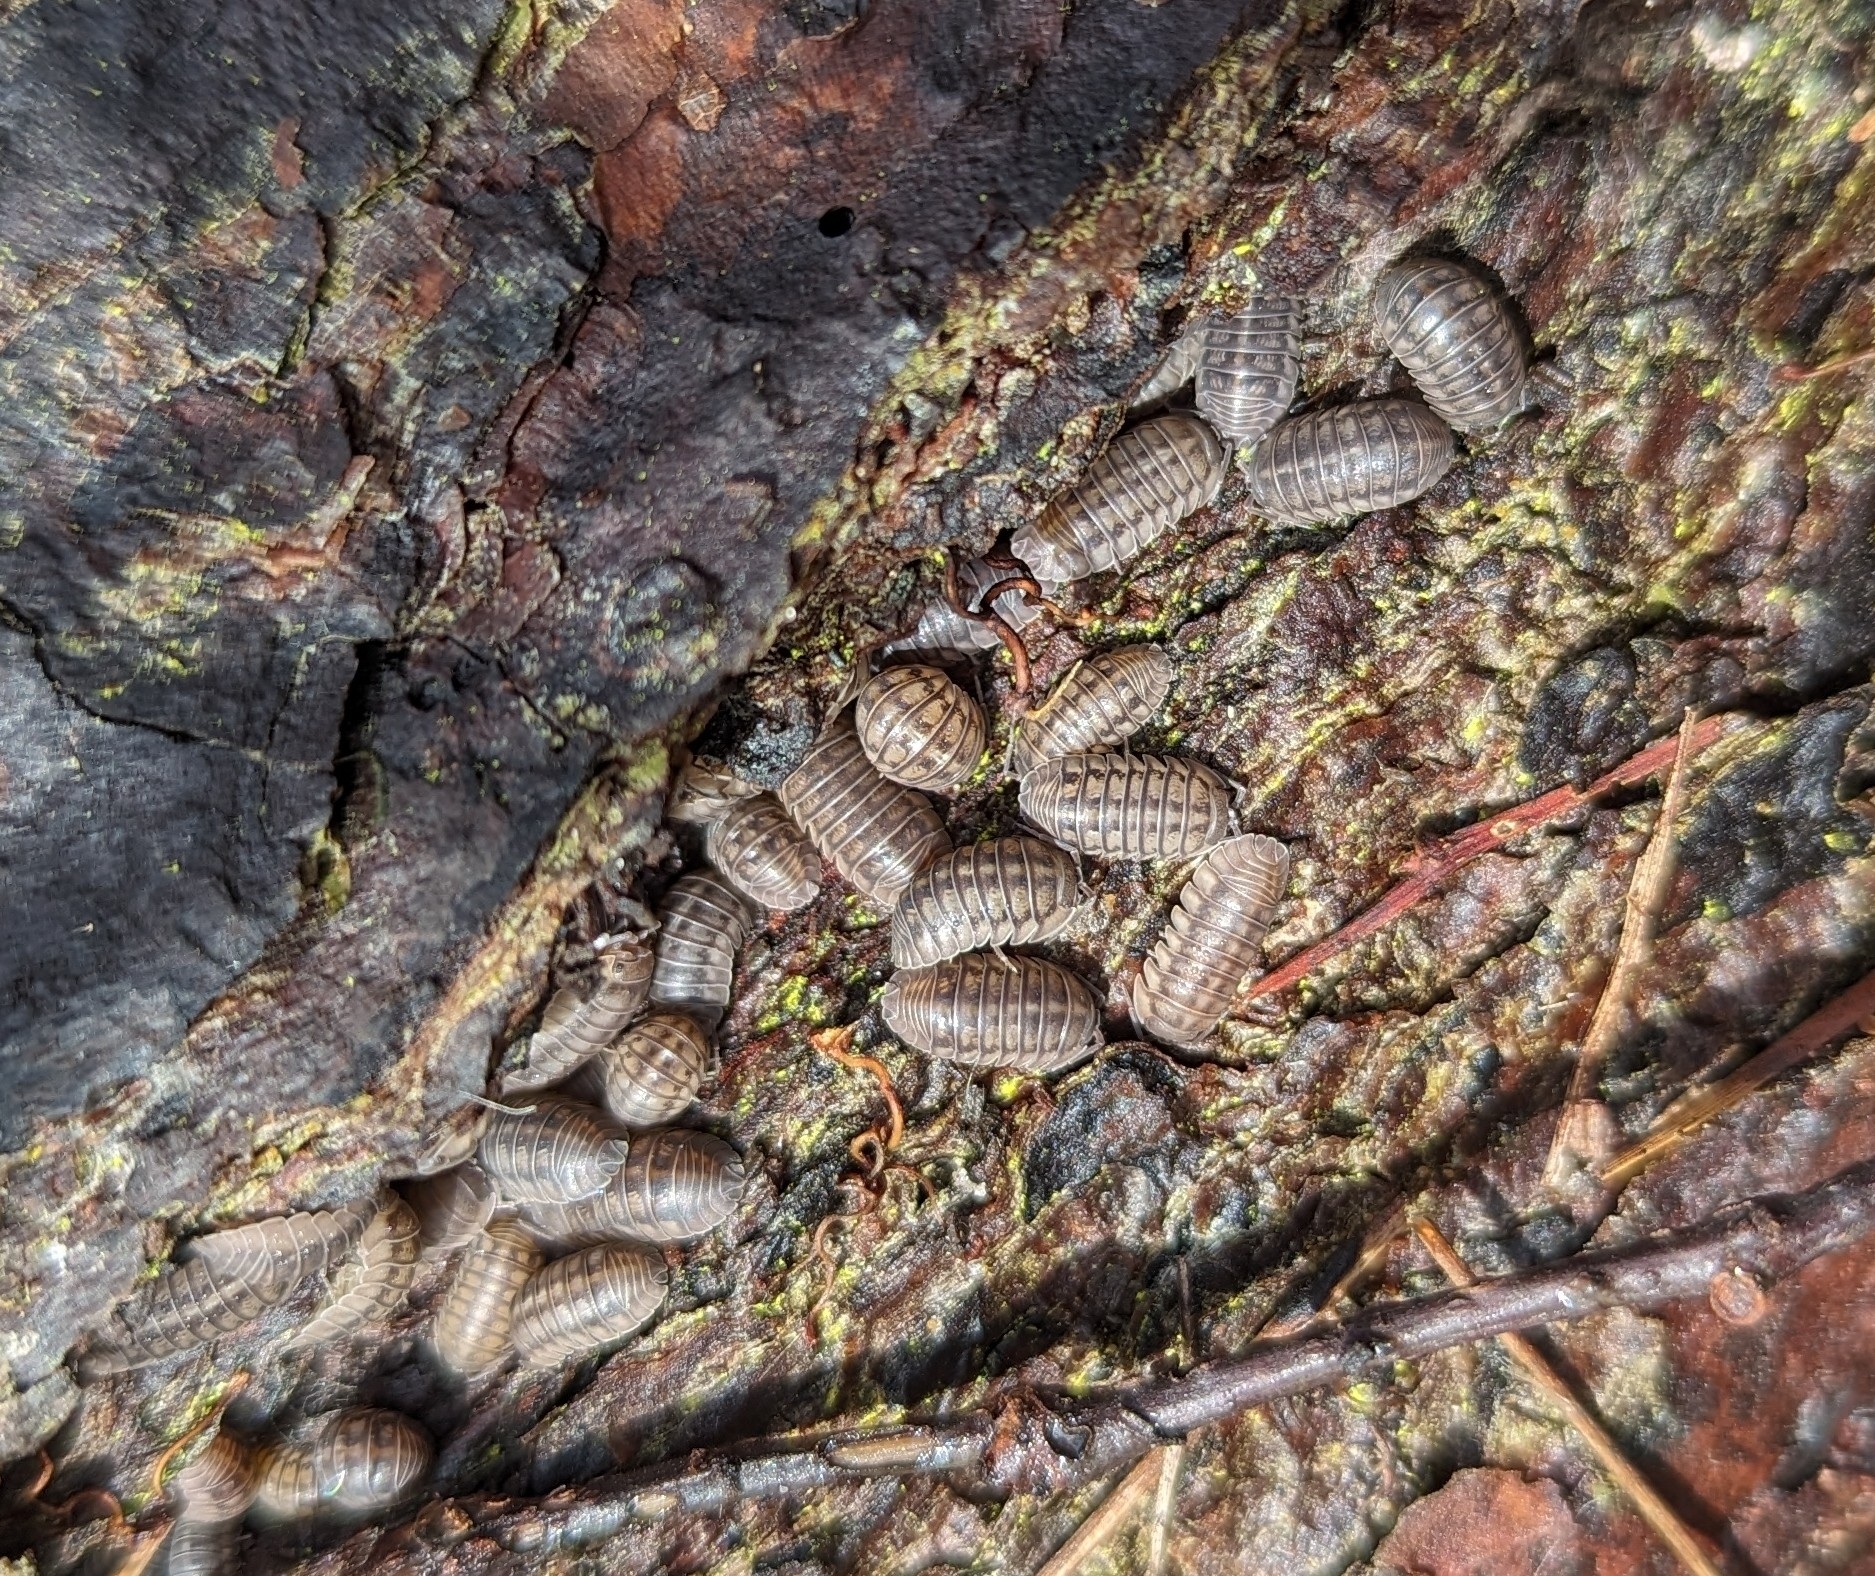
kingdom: Animalia
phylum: Arthropoda
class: Malacostraca
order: Isopoda
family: Armadillidiidae
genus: Armadillidium
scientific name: Armadillidium nasatum
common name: Isopod
